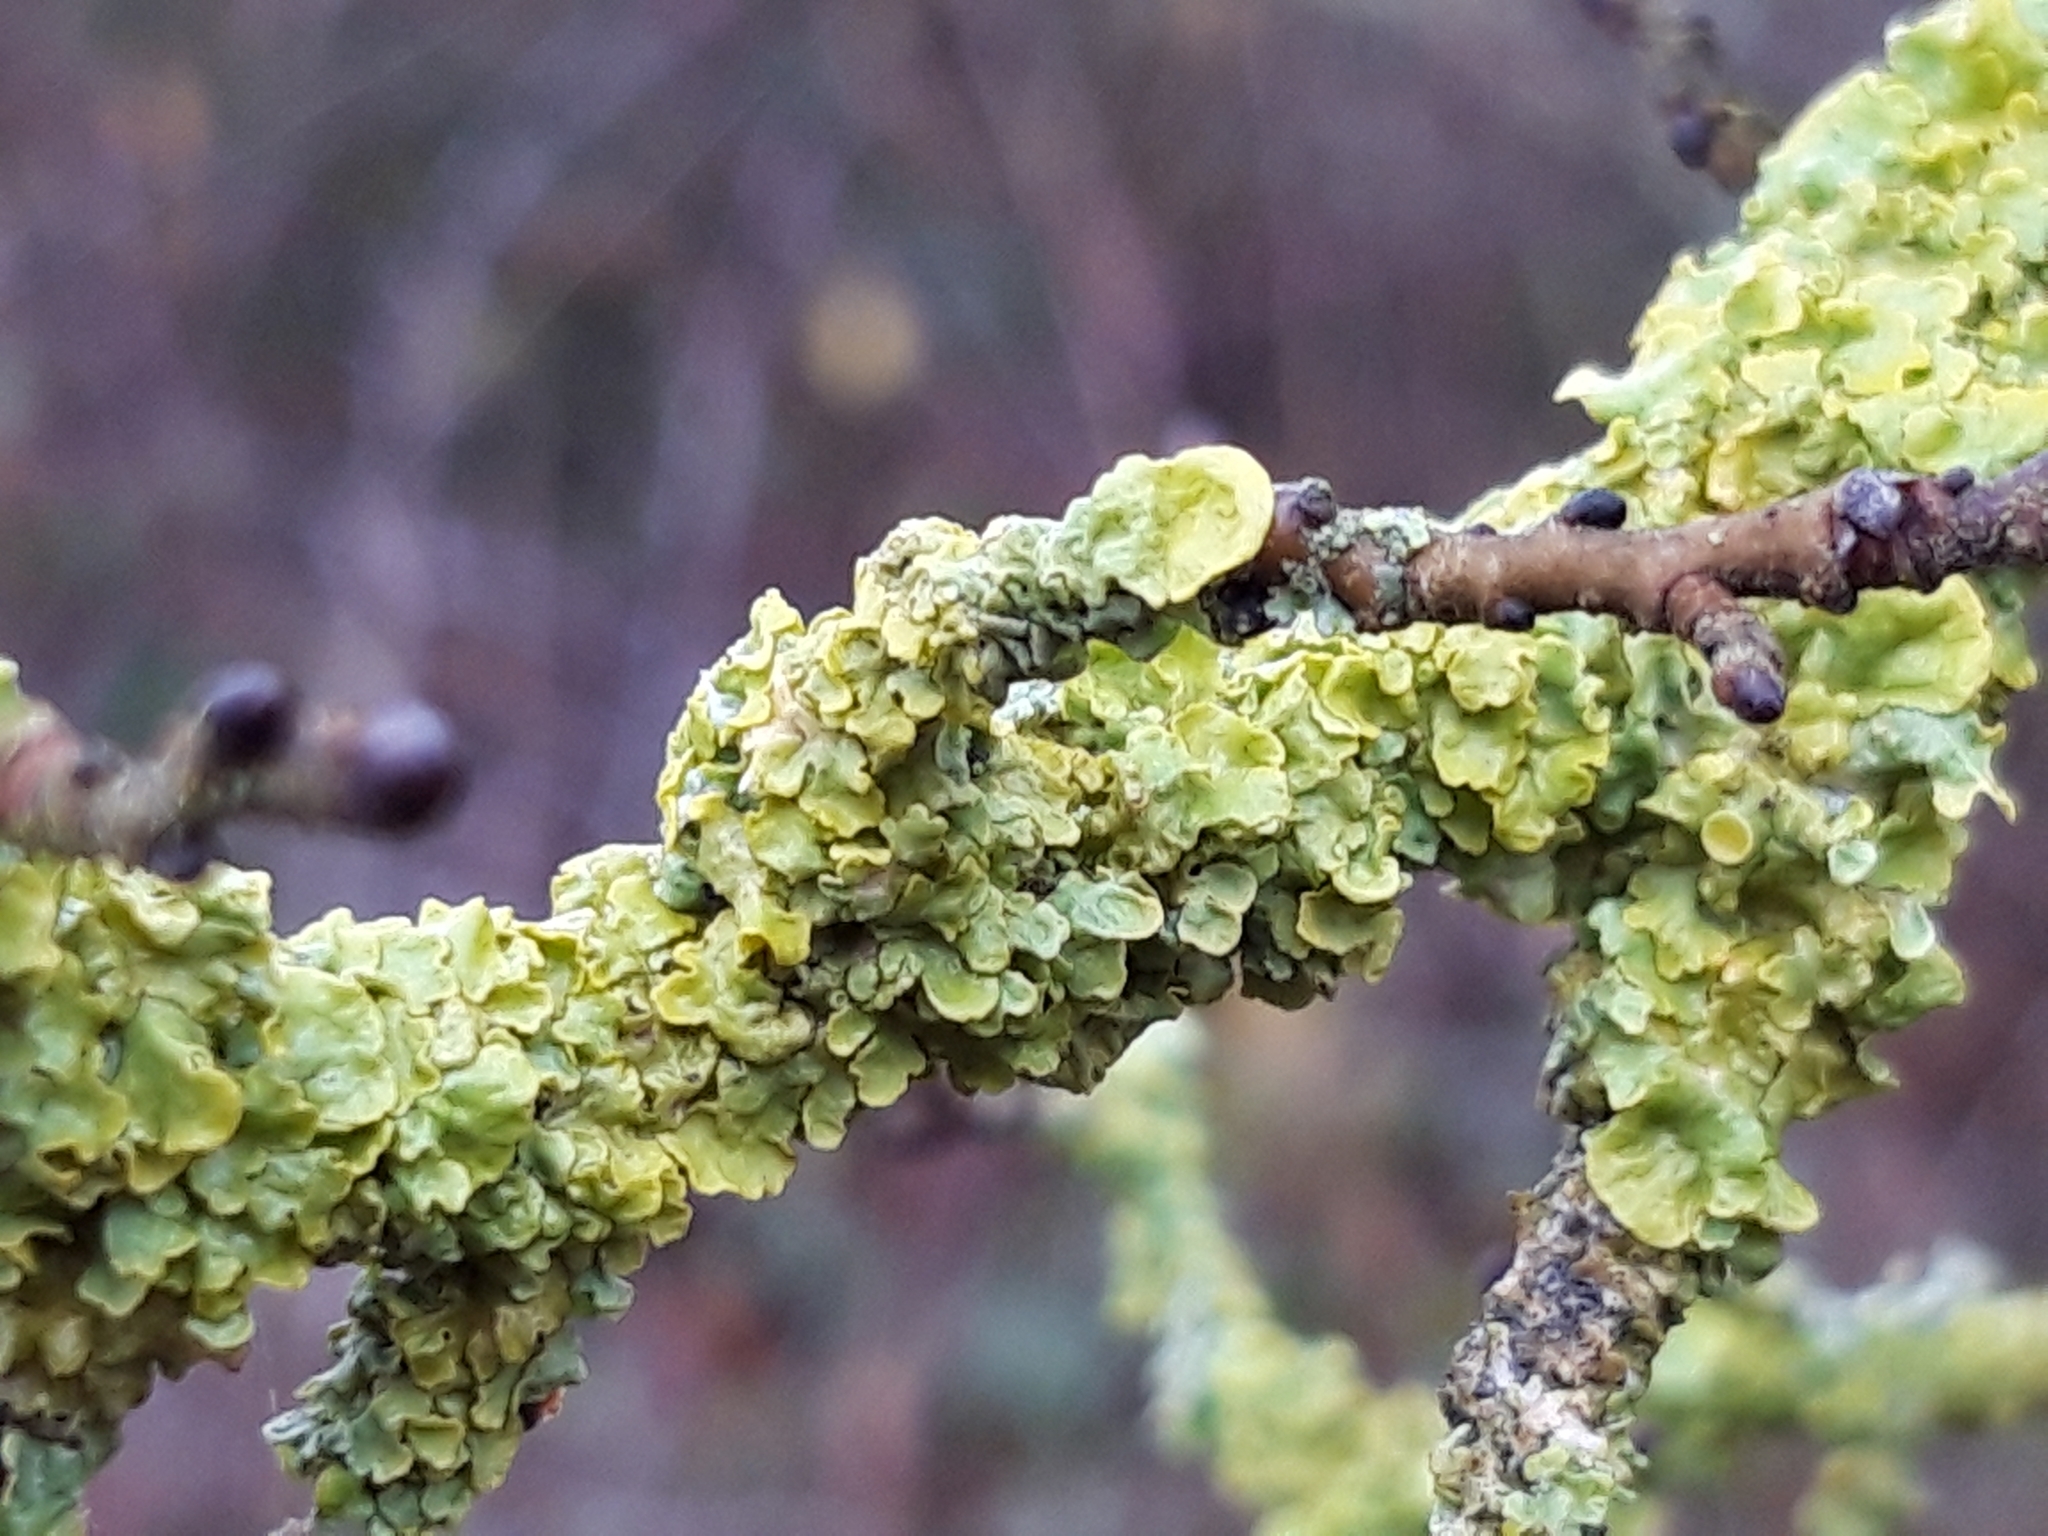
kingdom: Fungi
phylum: Ascomycota
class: Lecanoromycetes
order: Teloschistales
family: Teloschistaceae
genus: Xanthoria
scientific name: Xanthoria parietina
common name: Common orange lichen
